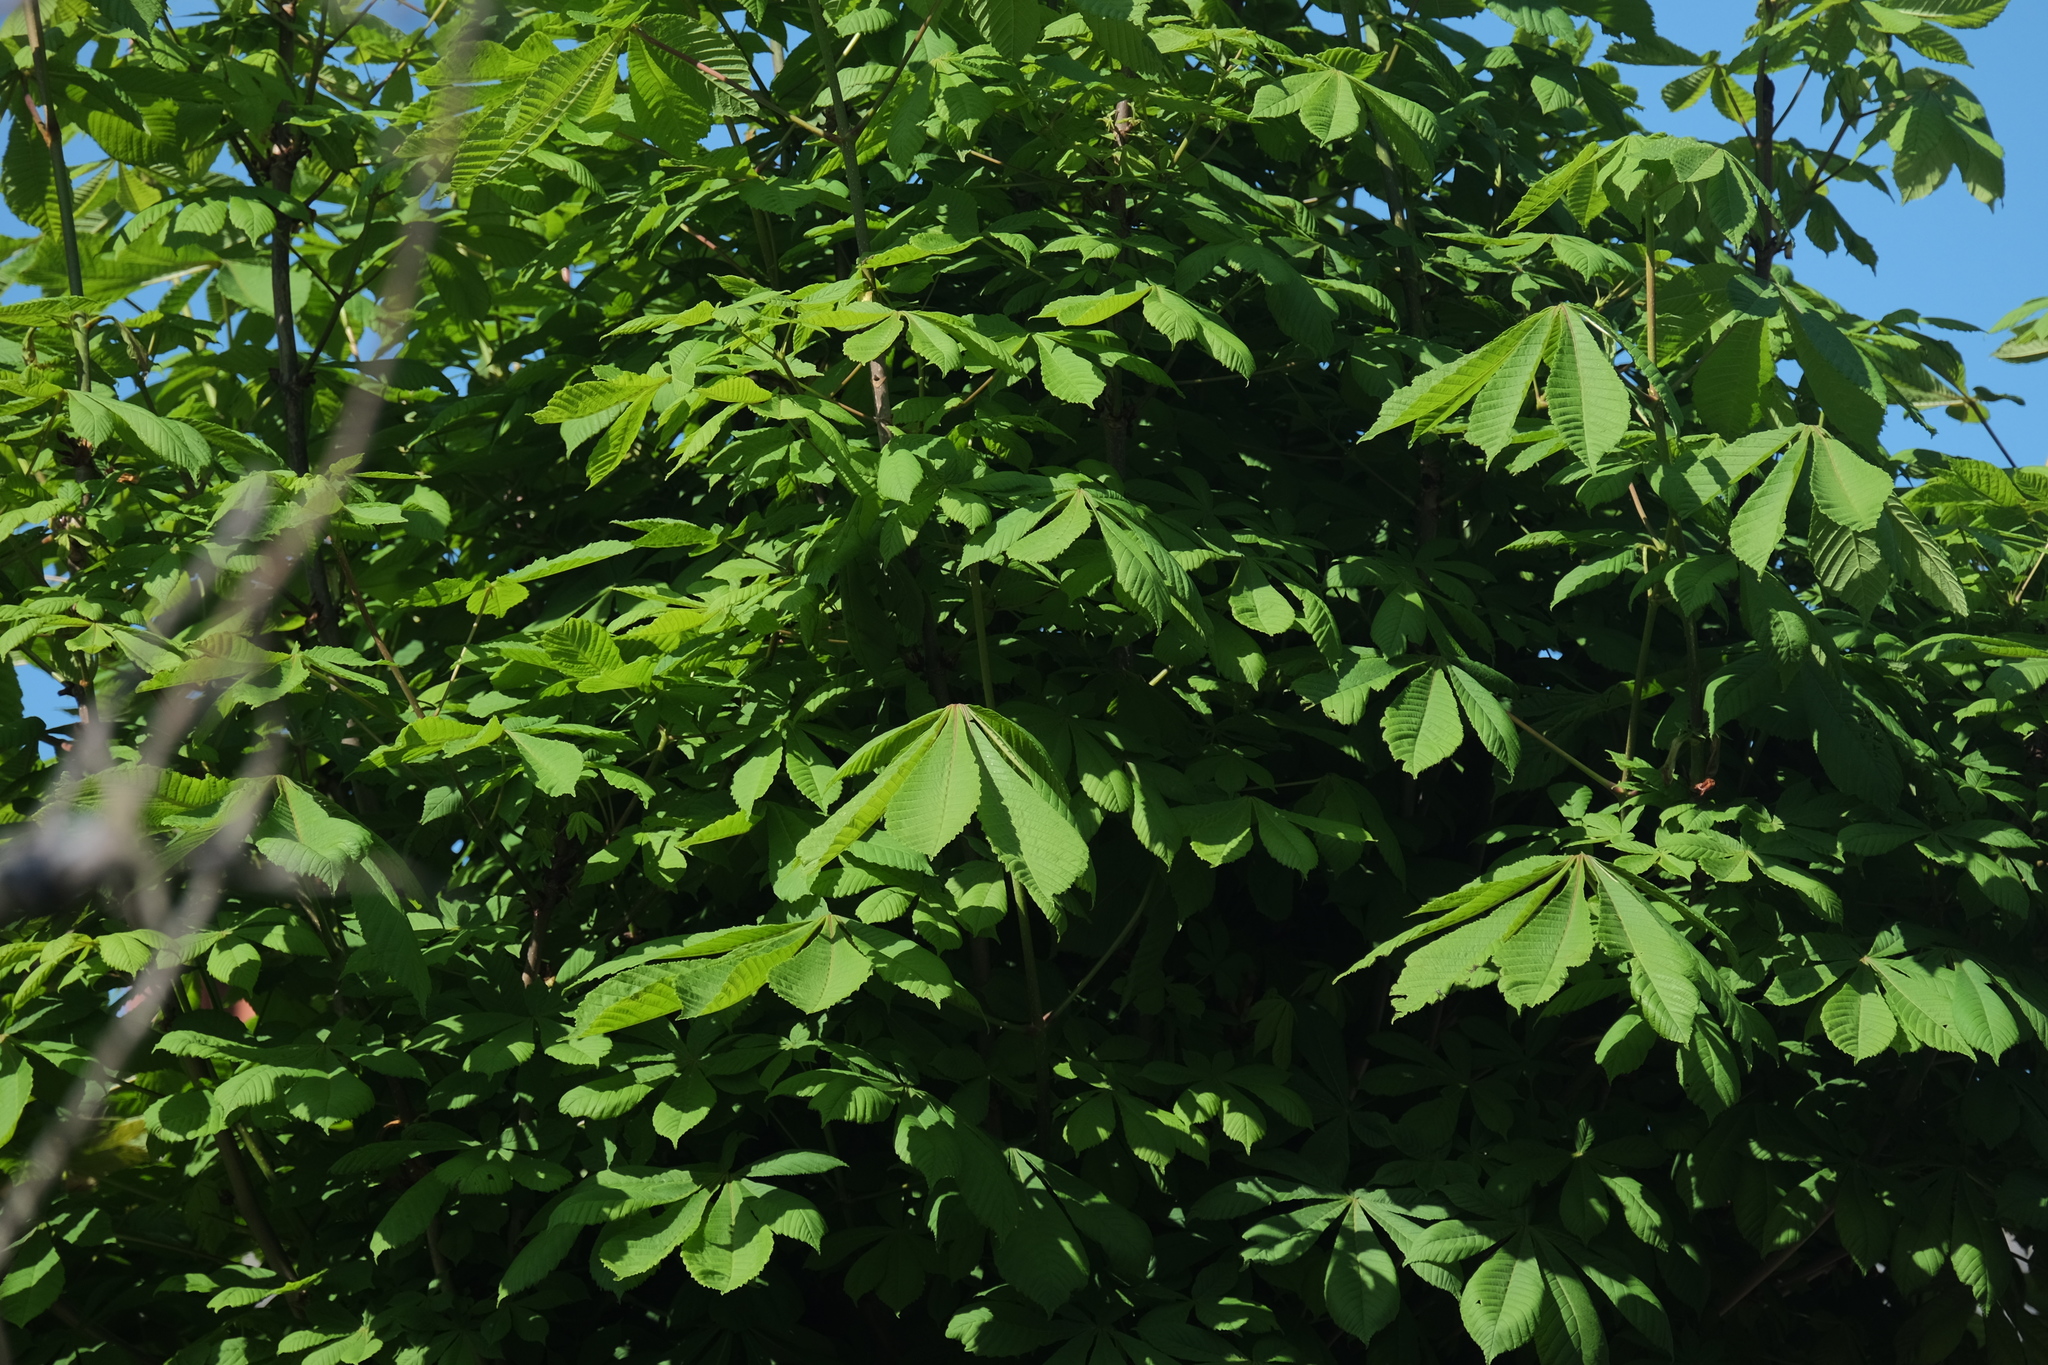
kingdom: Plantae
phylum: Tracheophyta
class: Magnoliopsida
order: Sapindales
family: Sapindaceae
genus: Aesculus
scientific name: Aesculus hippocastanum
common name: Horse-chestnut
